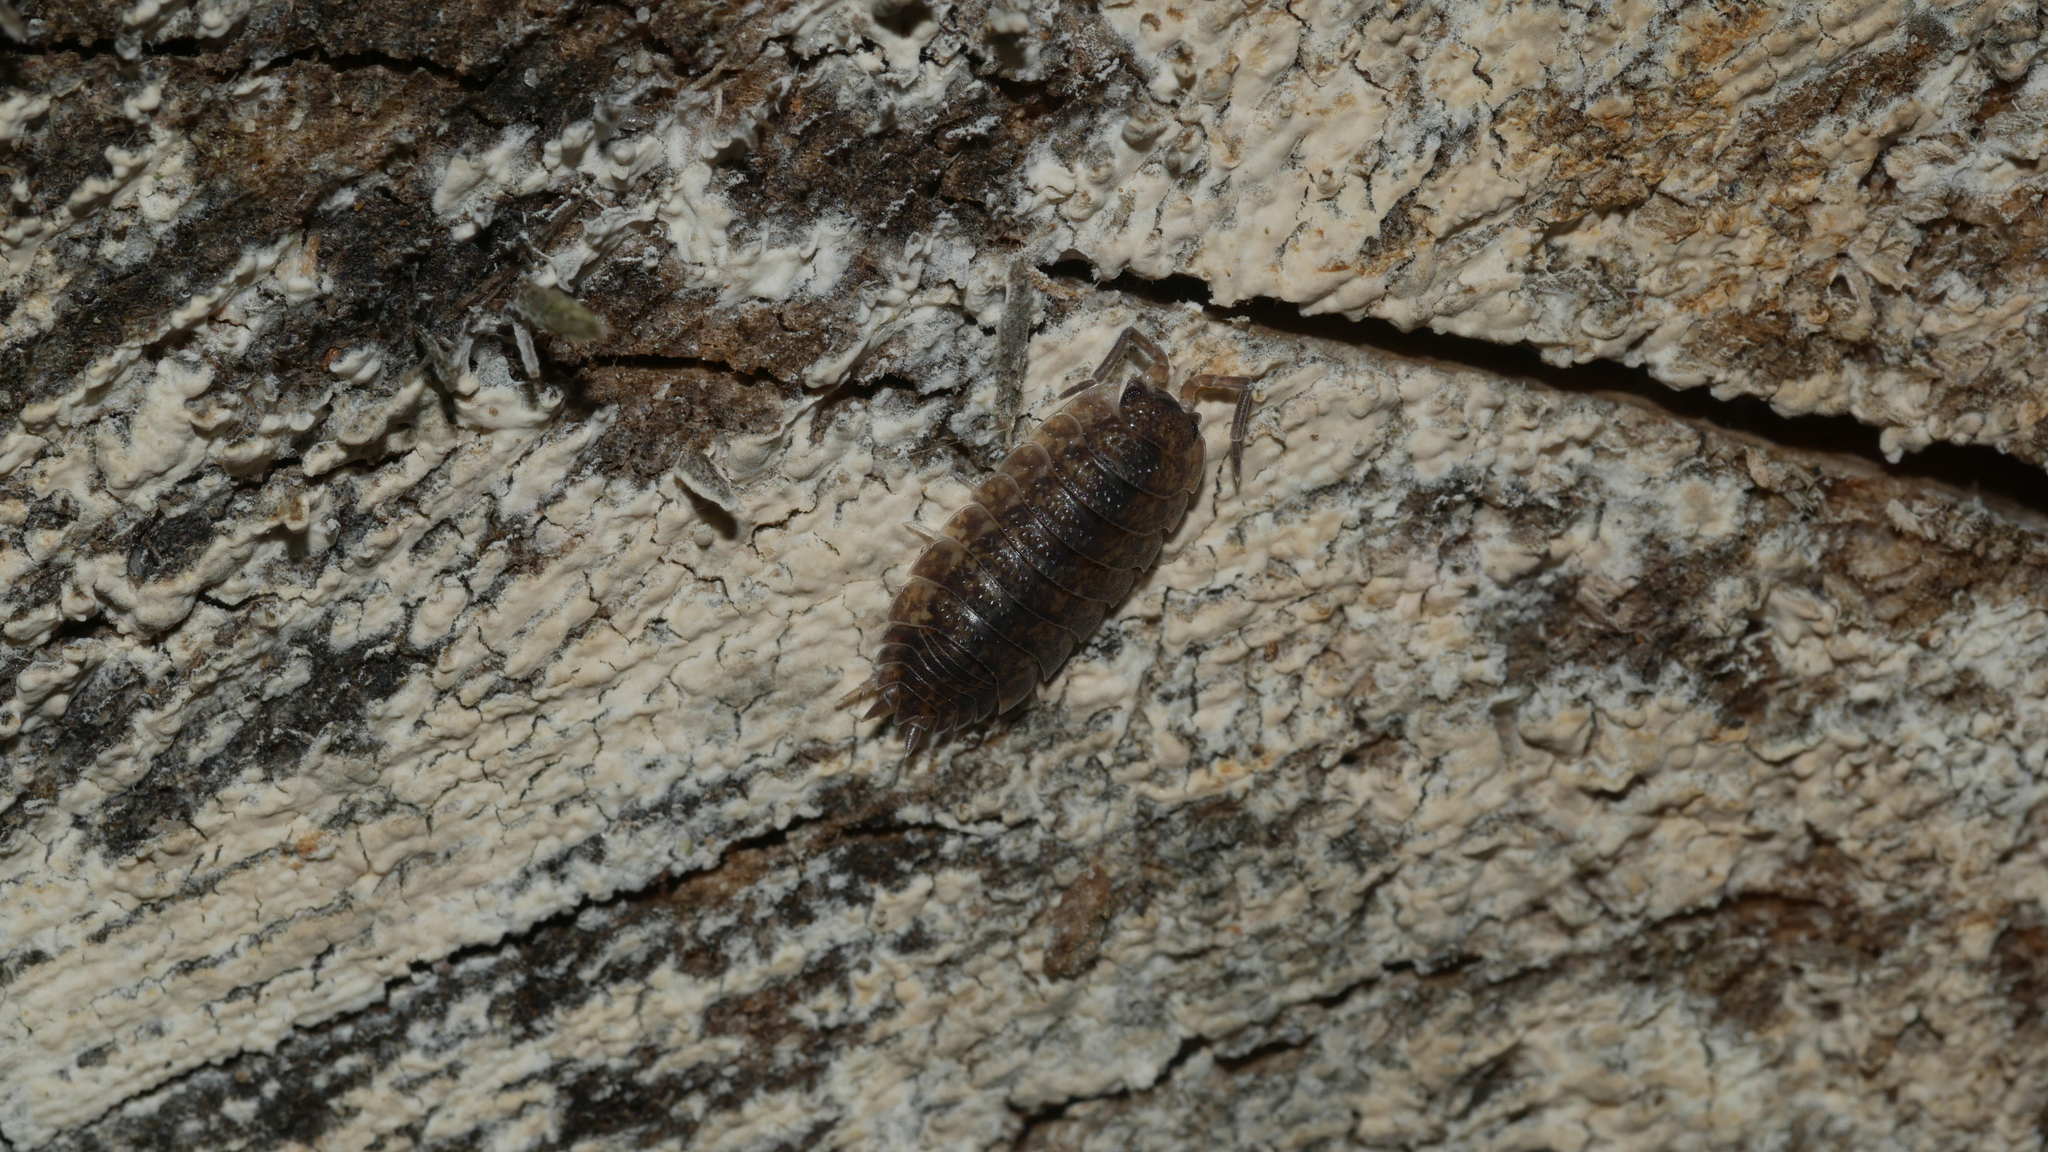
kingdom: Animalia
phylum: Arthropoda
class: Malacostraca
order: Isopoda
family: Porcellionidae
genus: Porcellio
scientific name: Porcellio scaber
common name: Common rough woodlouse
